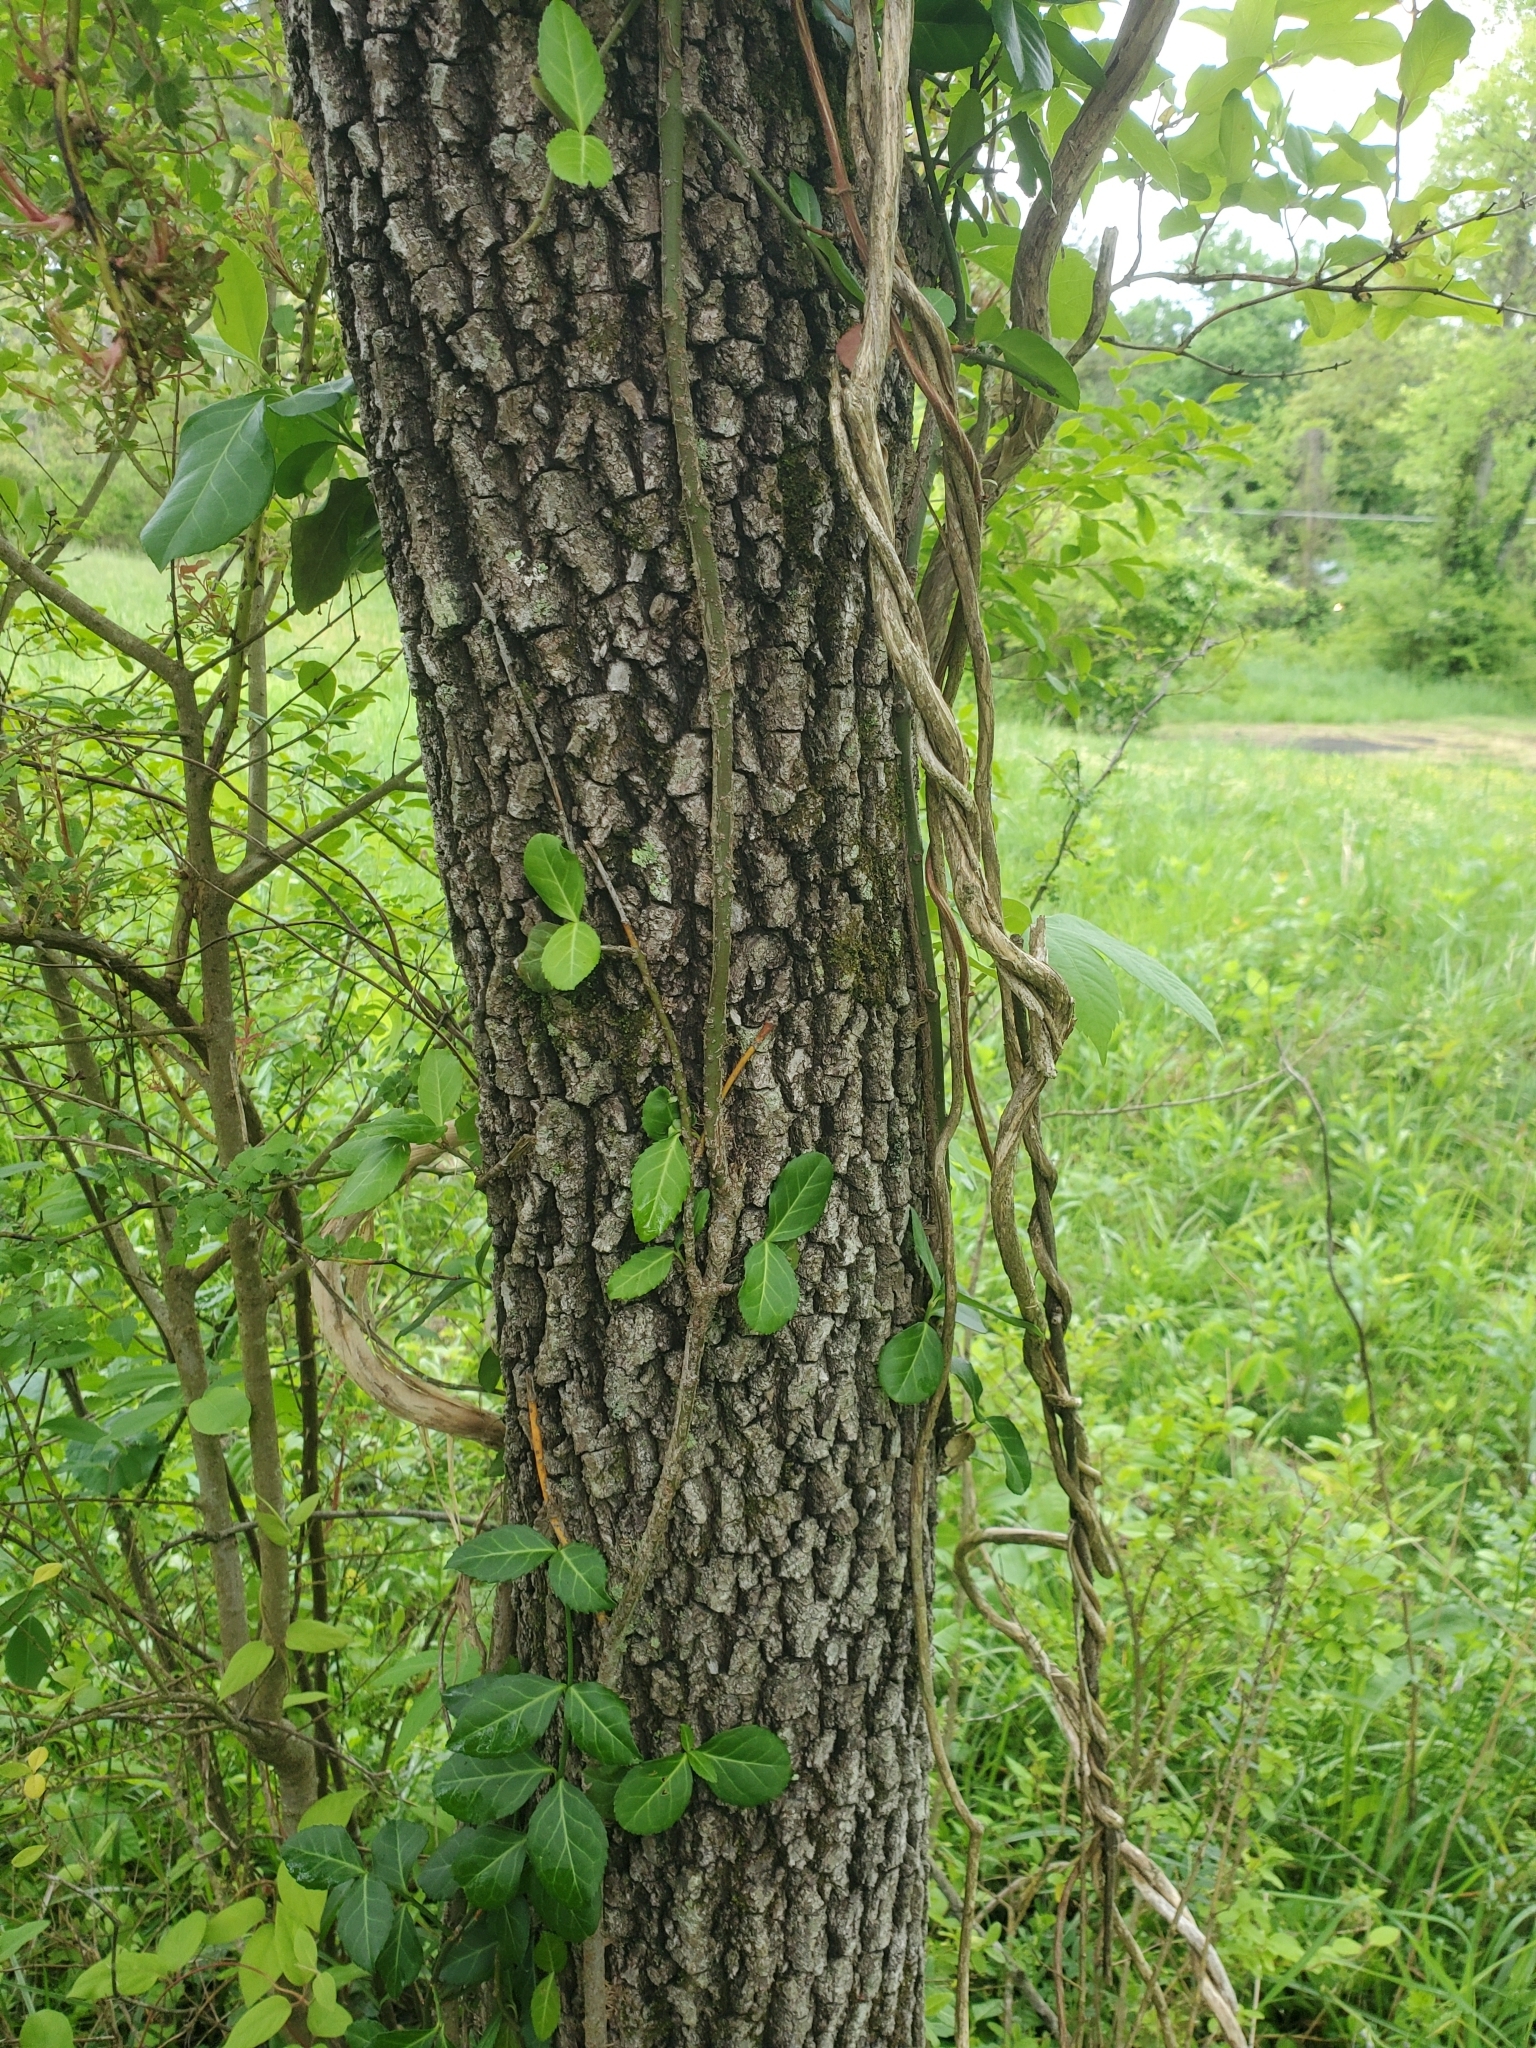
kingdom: Plantae
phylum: Tracheophyta
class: Magnoliopsida
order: Ericales
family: Ebenaceae
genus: Diospyros
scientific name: Diospyros virginiana
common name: Persimmon
